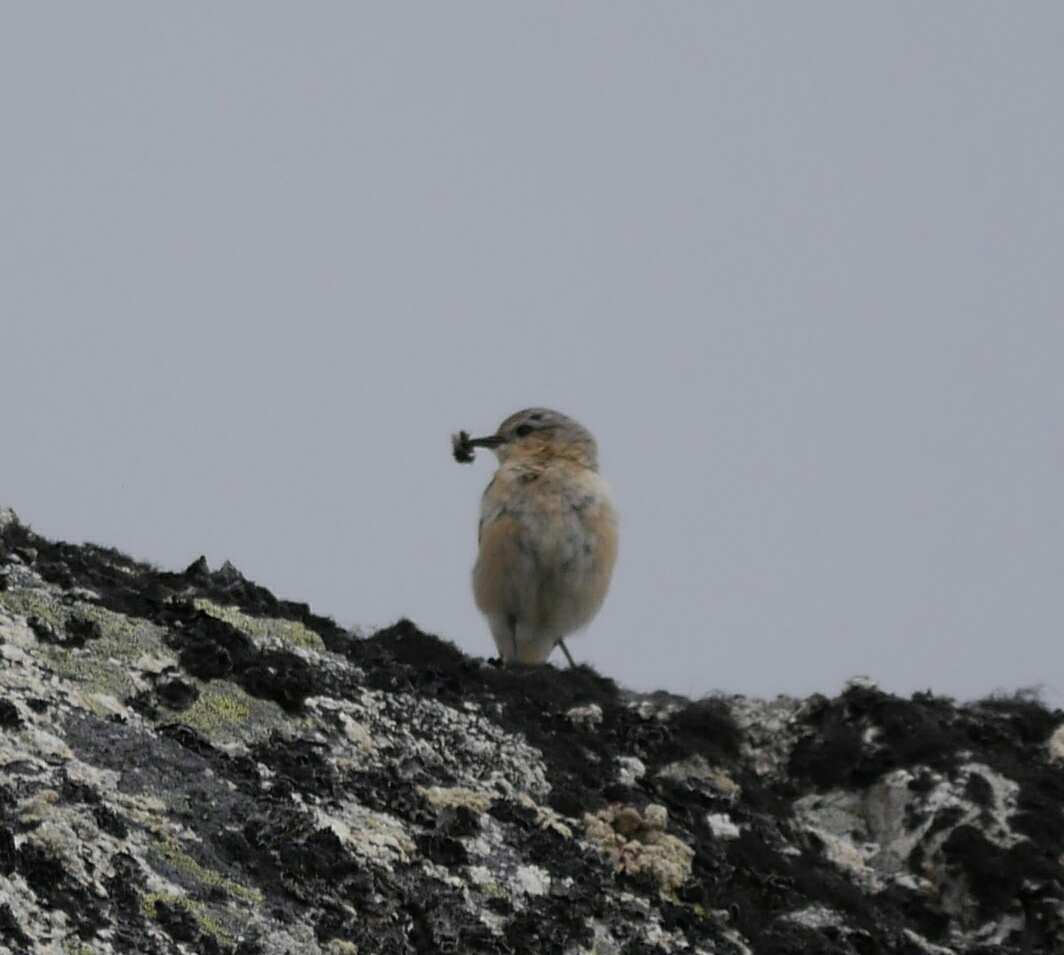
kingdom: Animalia
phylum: Chordata
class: Aves
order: Passeriformes
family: Muscicapidae
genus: Oenanthe
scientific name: Oenanthe oenanthe
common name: Northern wheatear
